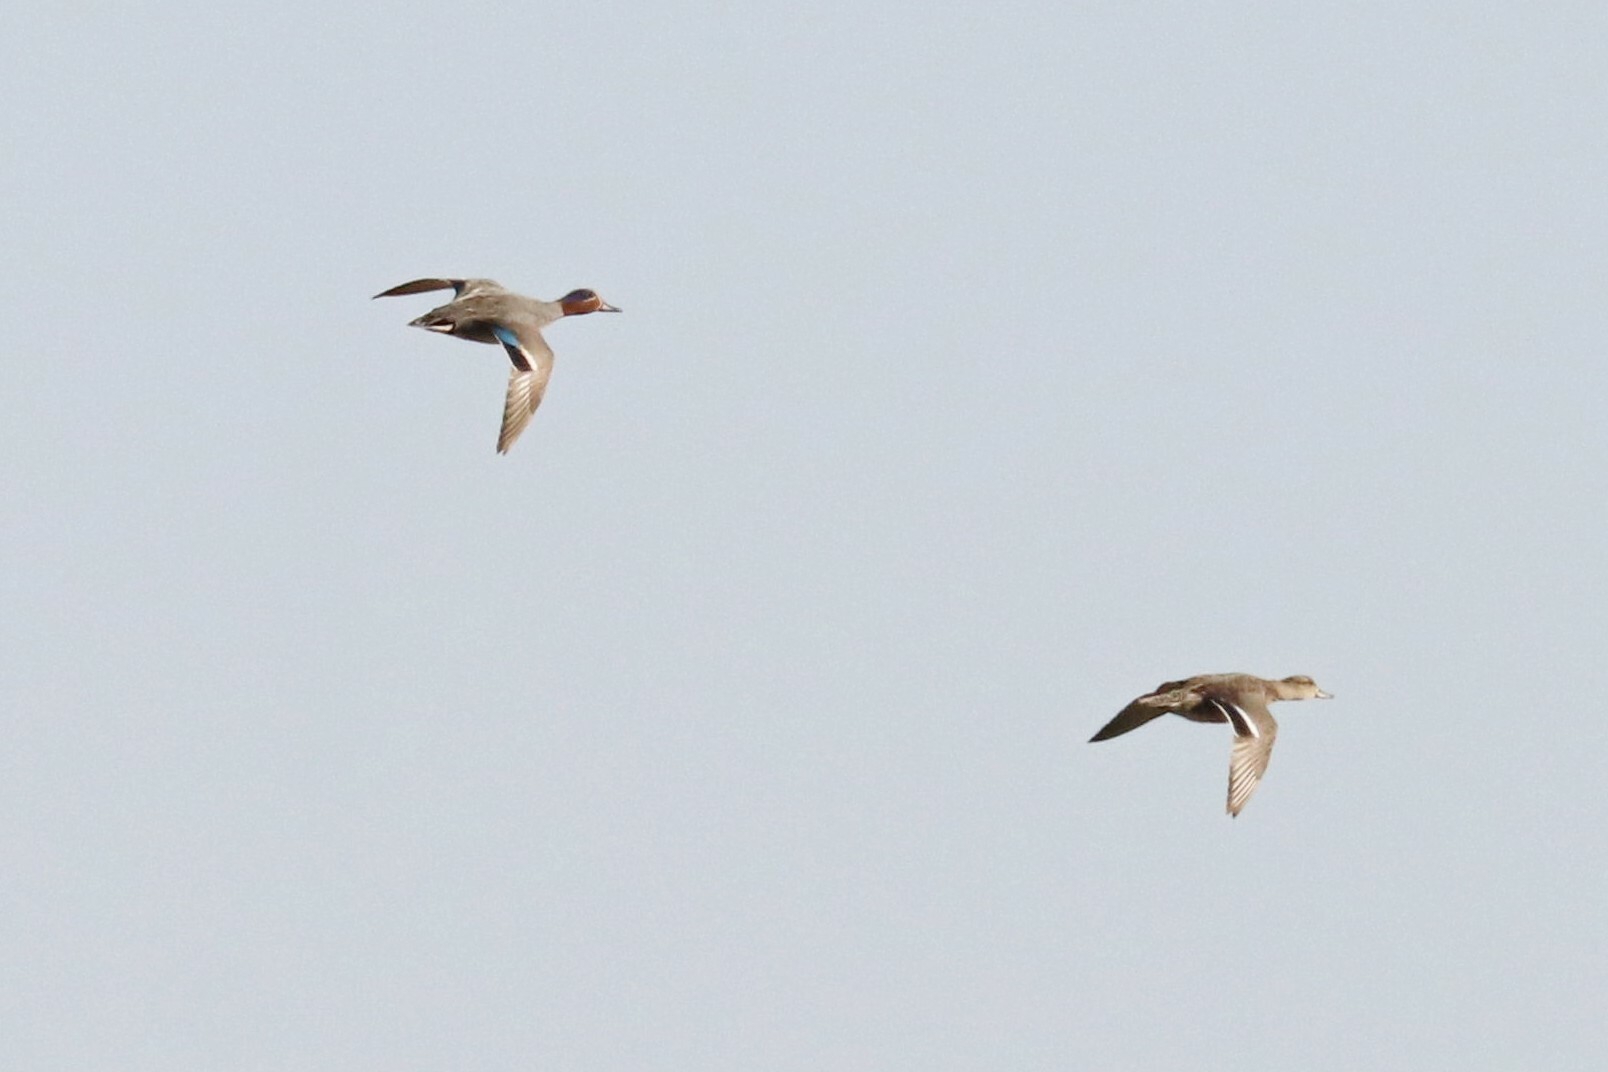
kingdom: Animalia
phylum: Chordata
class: Aves
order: Anseriformes
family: Anatidae
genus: Anas
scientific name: Anas crecca
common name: Eurasian teal
